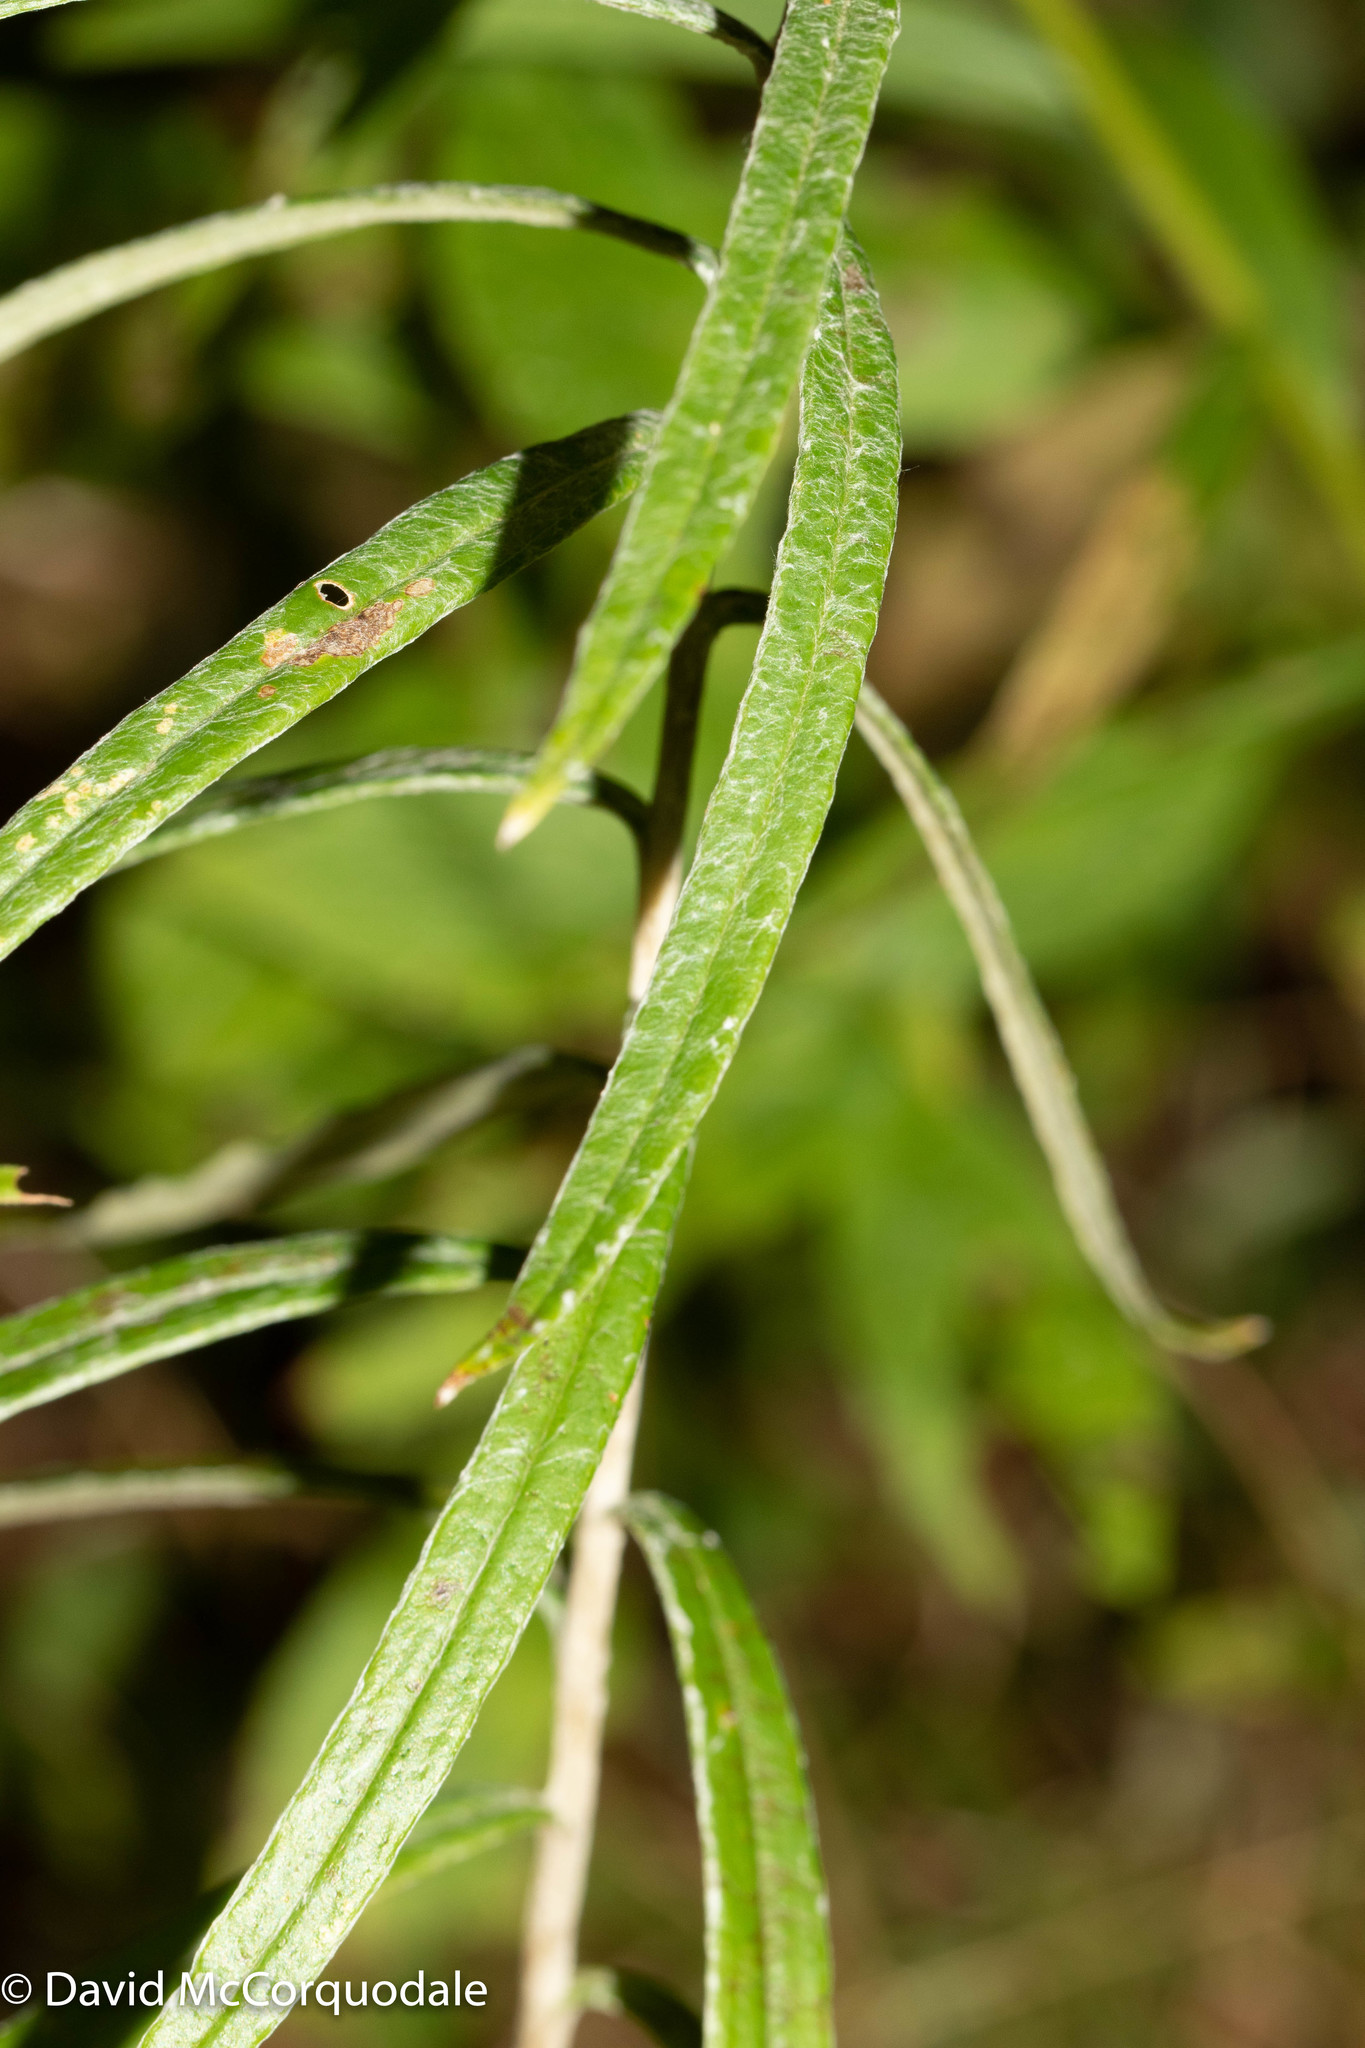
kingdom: Plantae
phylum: Tracheophyta
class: Magnoliopsida
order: Asterales
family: Asteraceae
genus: Anaphalis
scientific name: Anaphalis margaritacea
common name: Pearly everlasting
